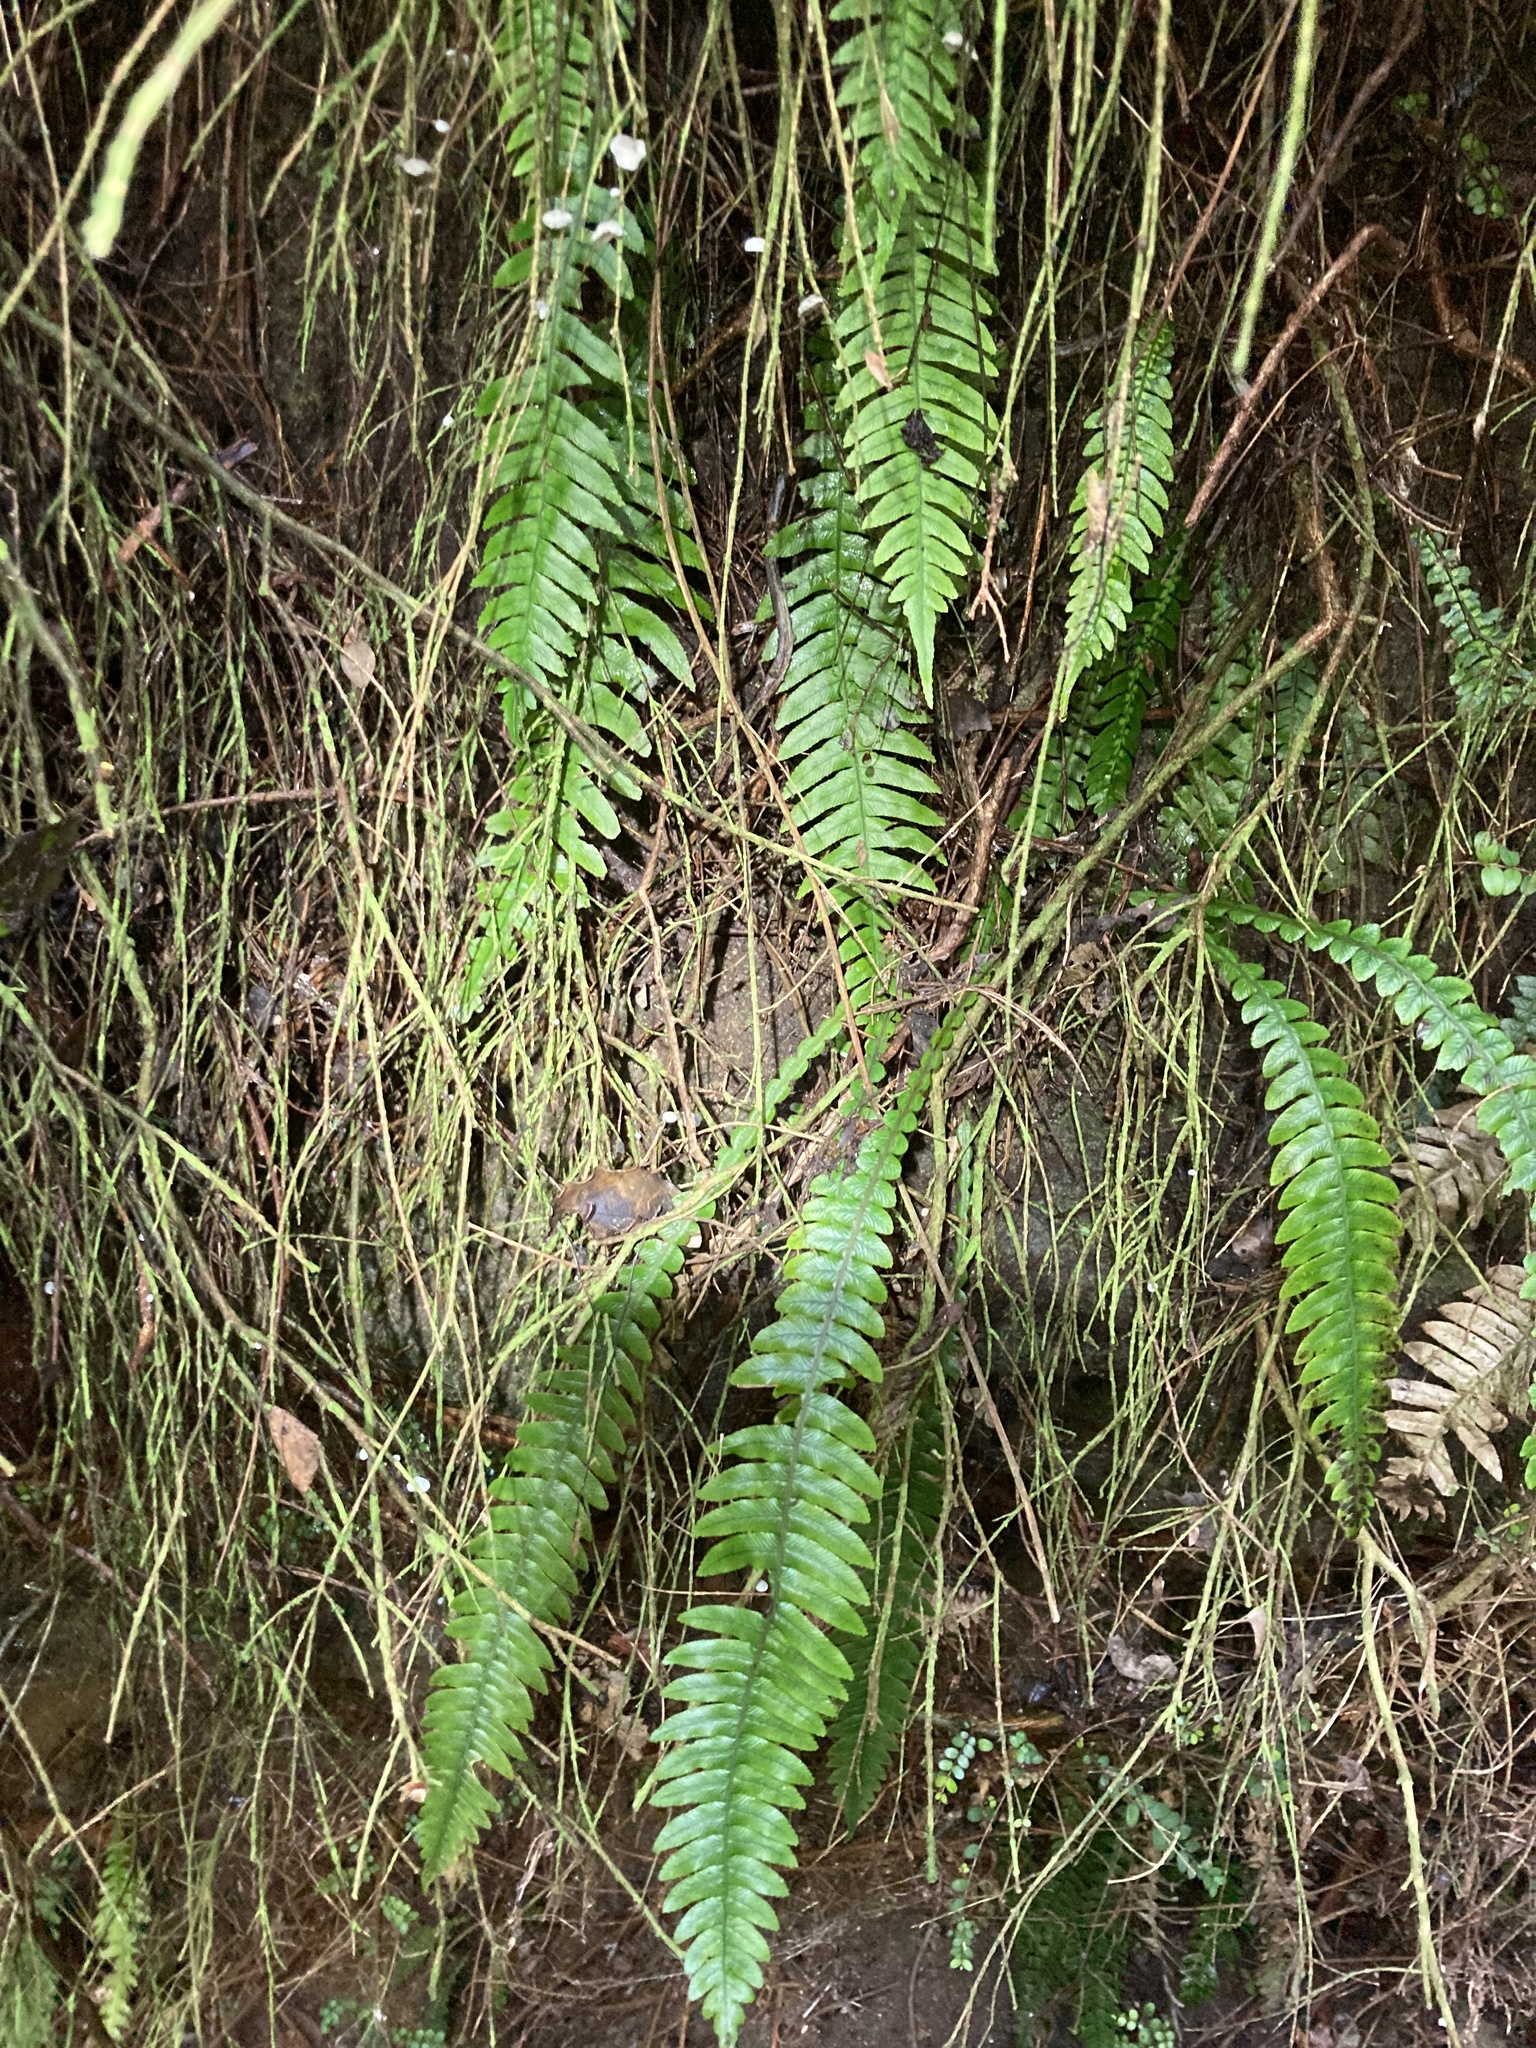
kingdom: Plantae
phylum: Tracheophyta
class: Polypodiopsida
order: Polypodiales
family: Blechnaceae
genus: Austroblechnum
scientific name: Austroblechnum lanceolatum
